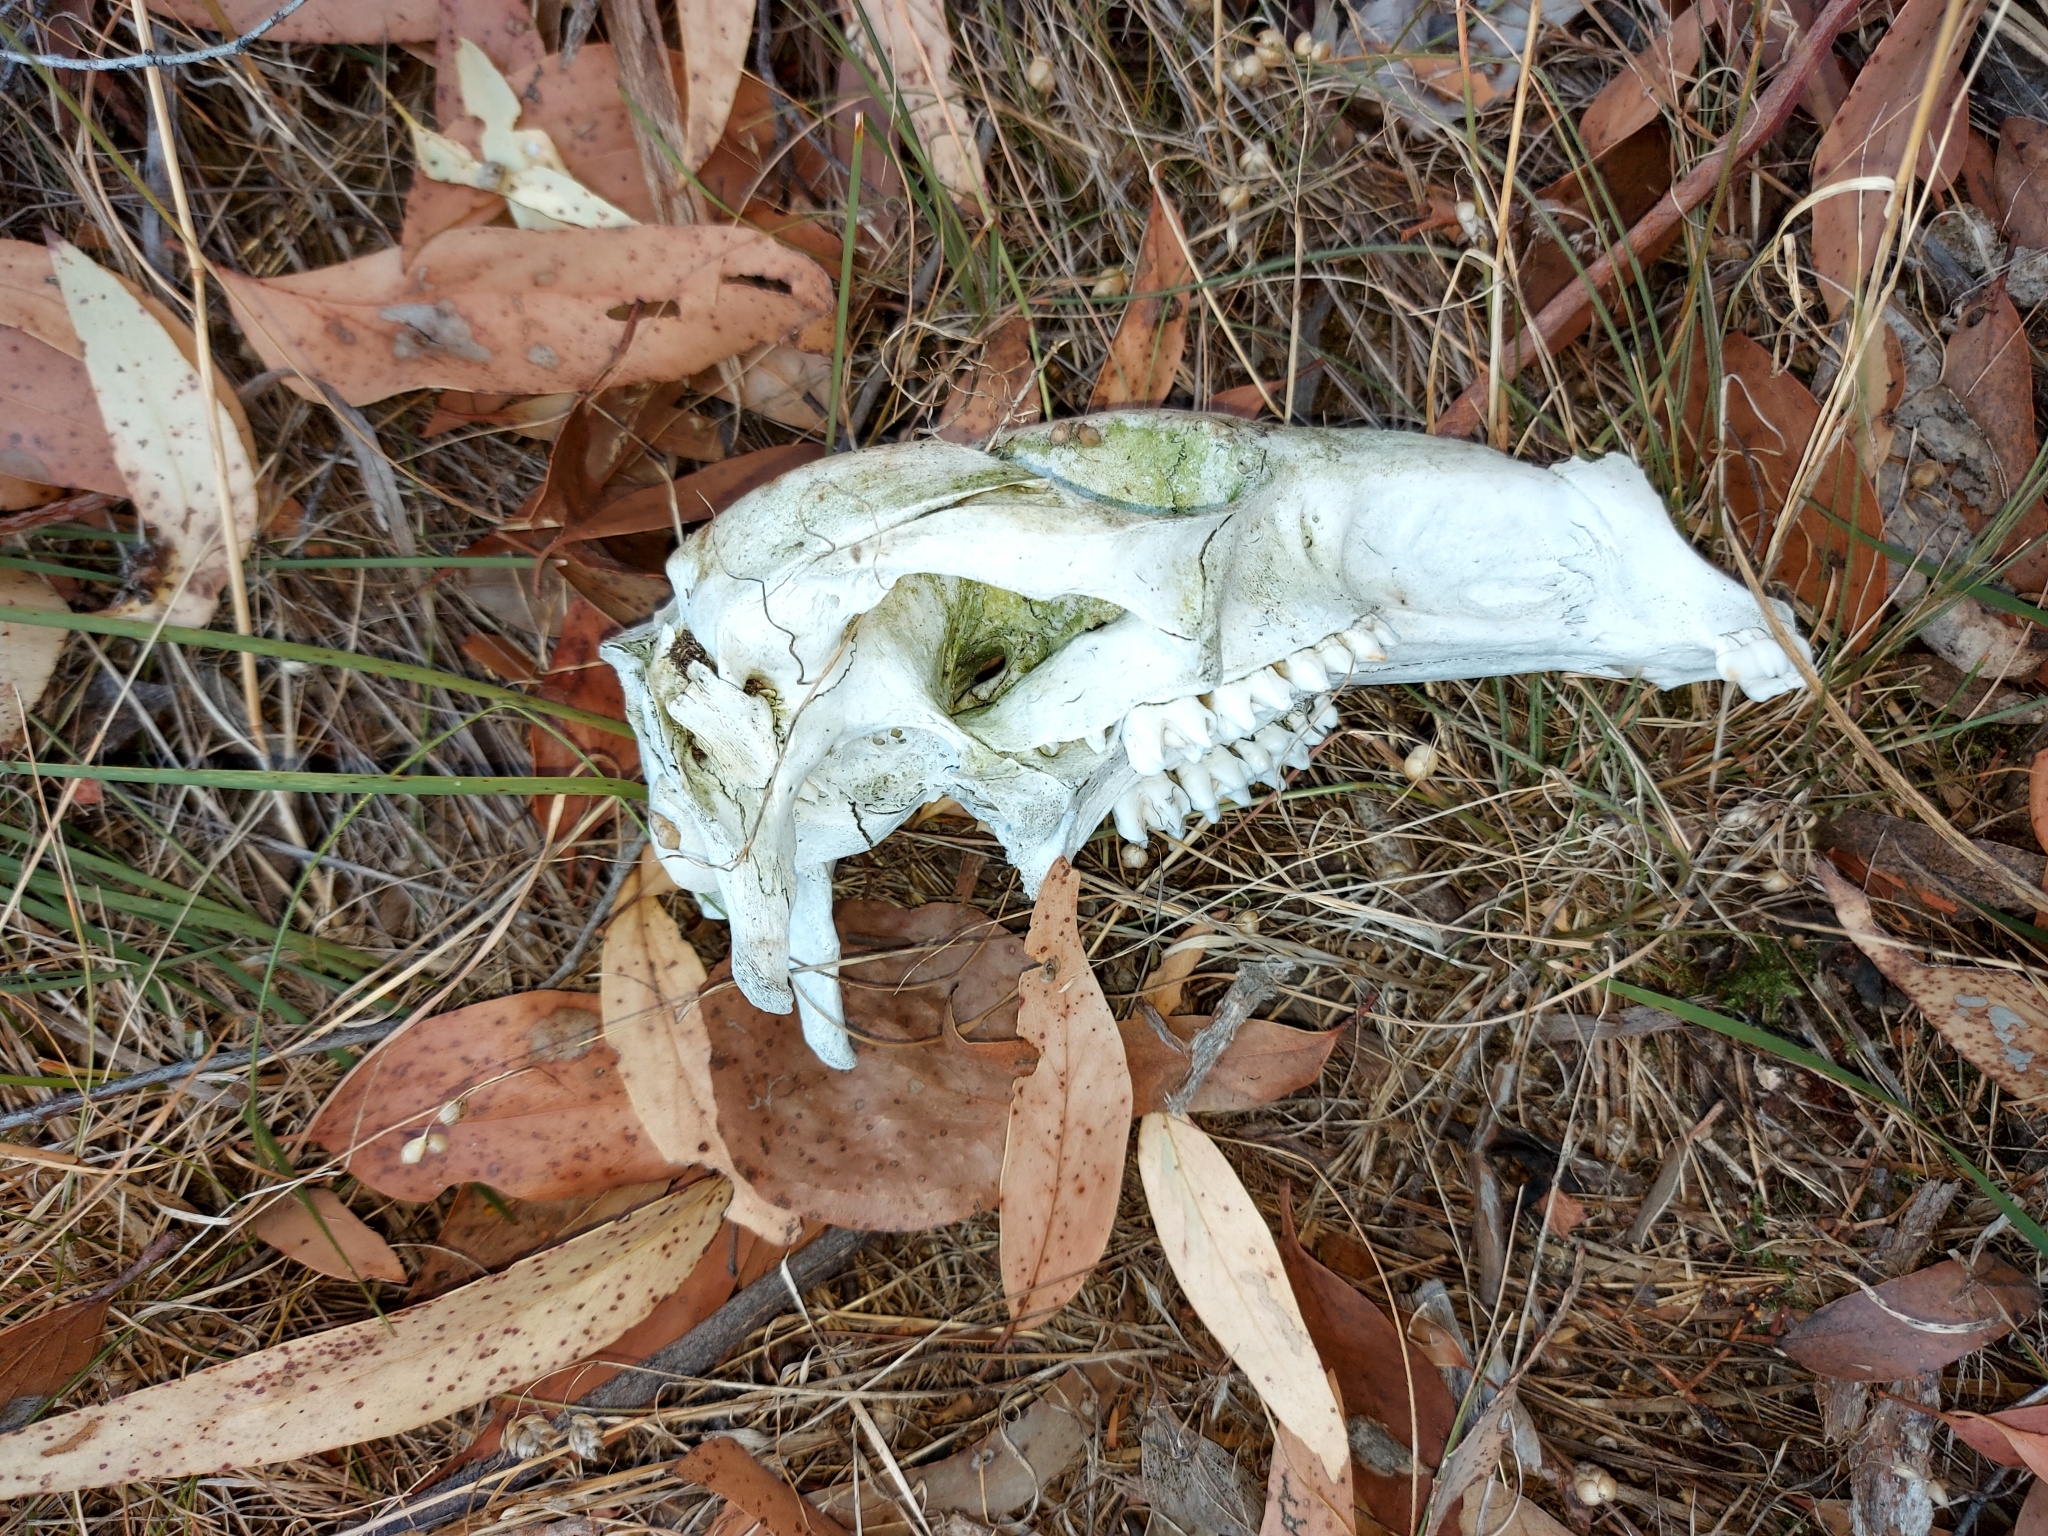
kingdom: Animalia
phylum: Chordata
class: Mammalia
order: Diprotodontia
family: Macropodidae
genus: Macropus
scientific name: Macropus giganteus
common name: Eastern grey kangaroo
